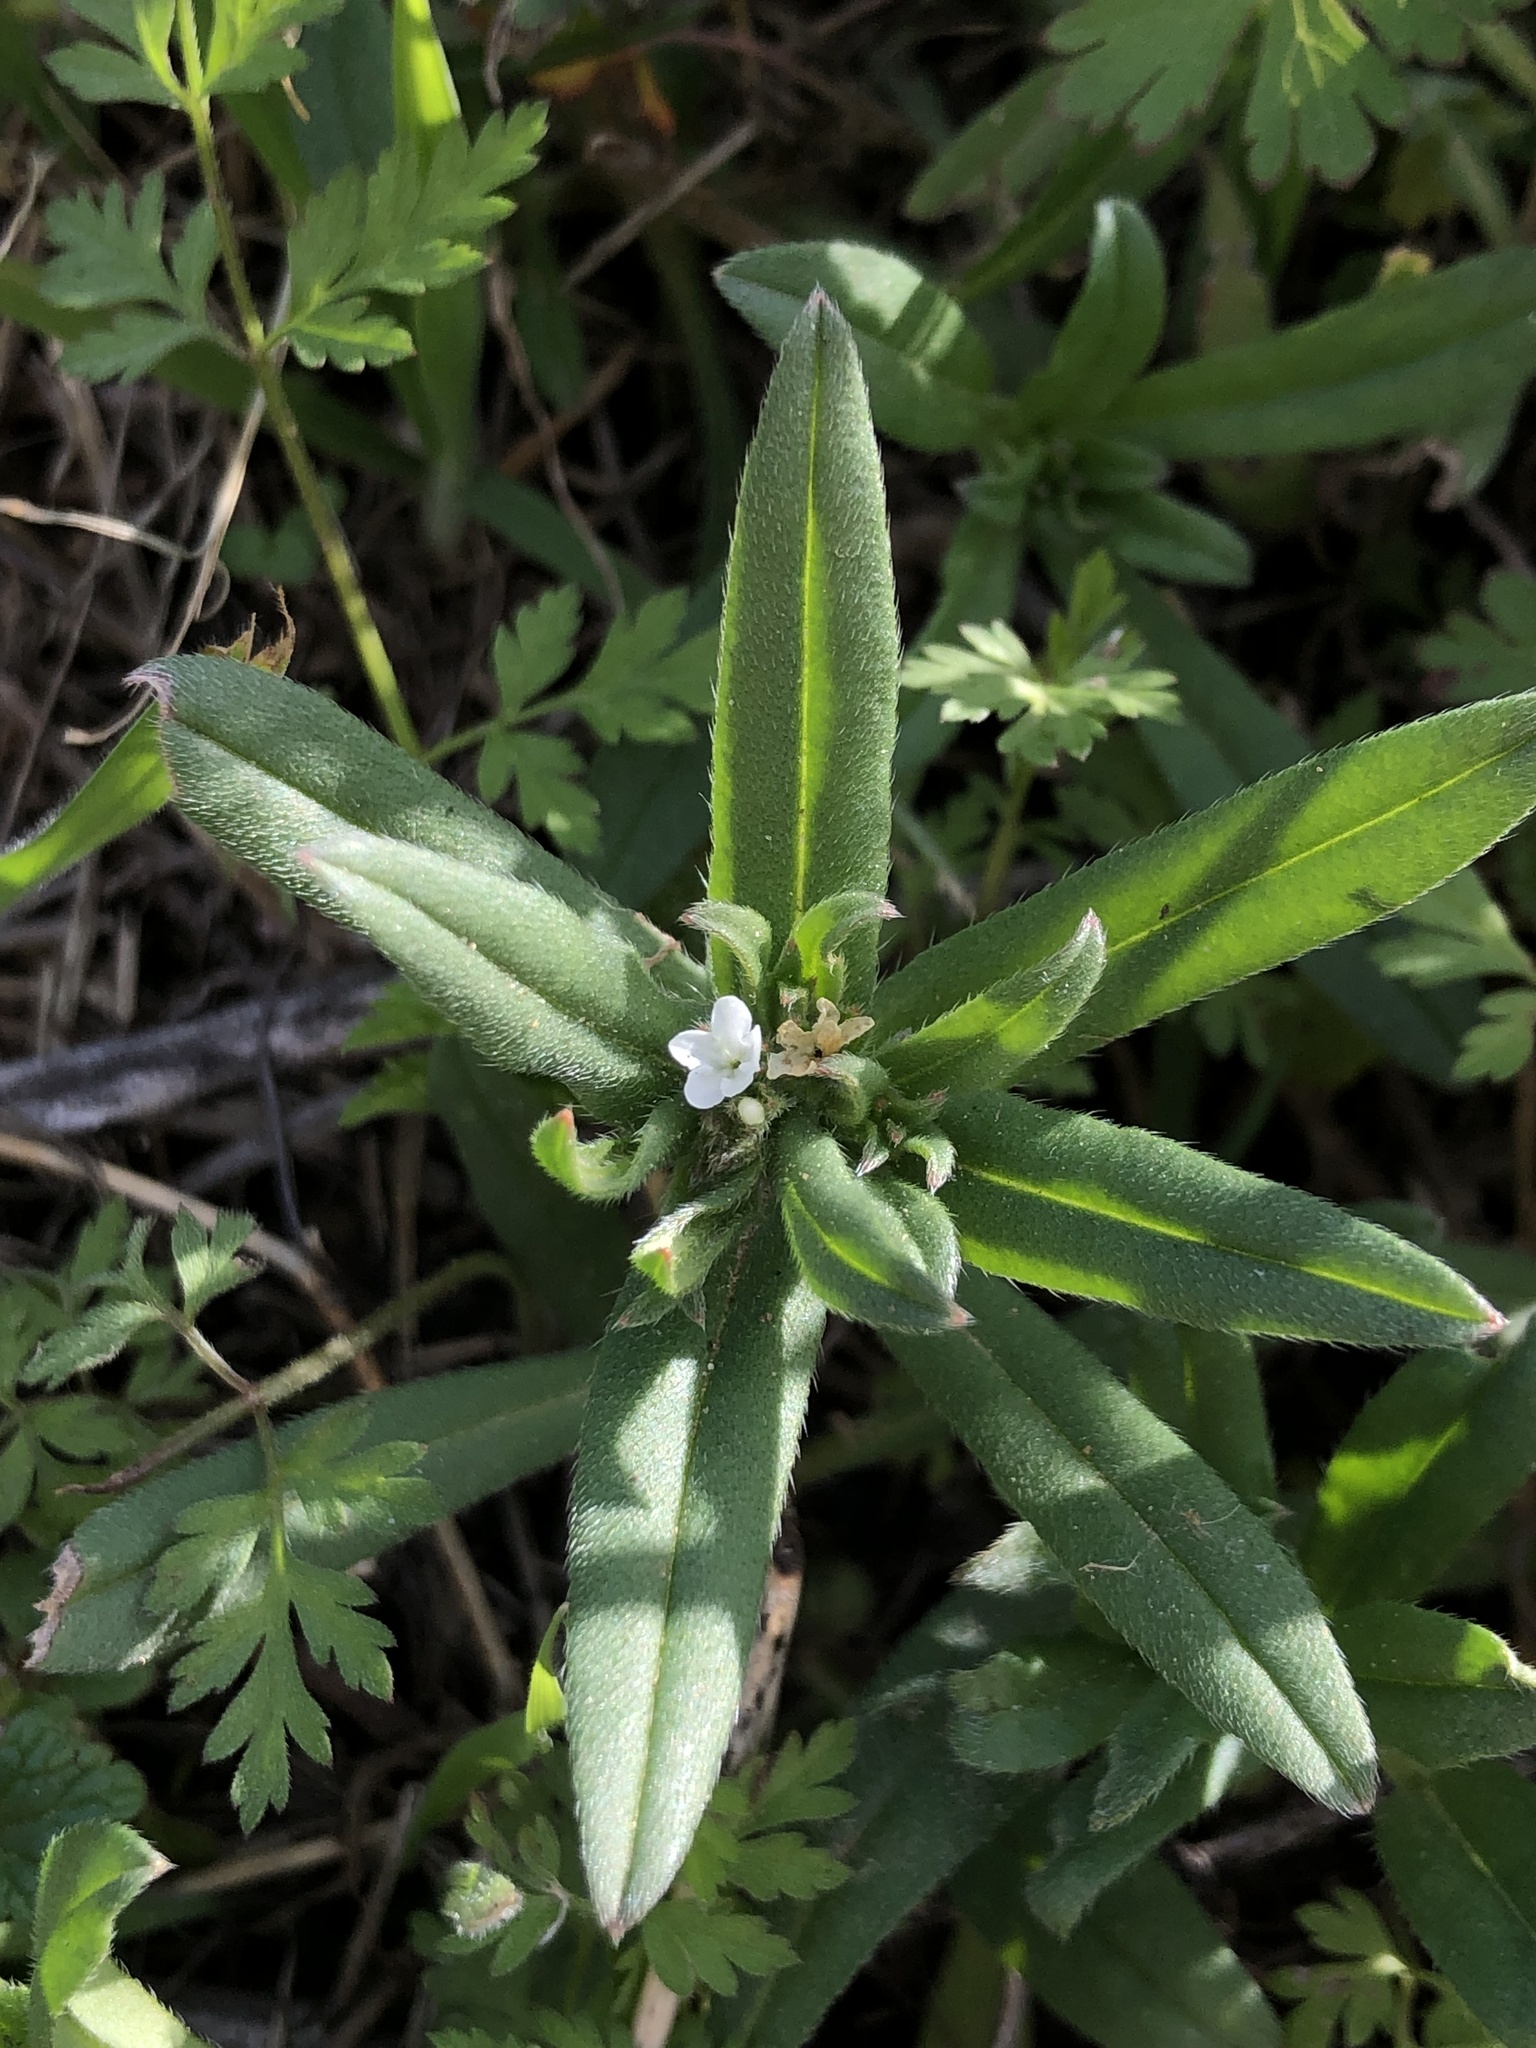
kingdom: Plantae
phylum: Tracheophyta
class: Magnoliopsida
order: Boraginales
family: Boraginaceae
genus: Buglossoides
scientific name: Buglossoides arvensis
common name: Corn gromwell
